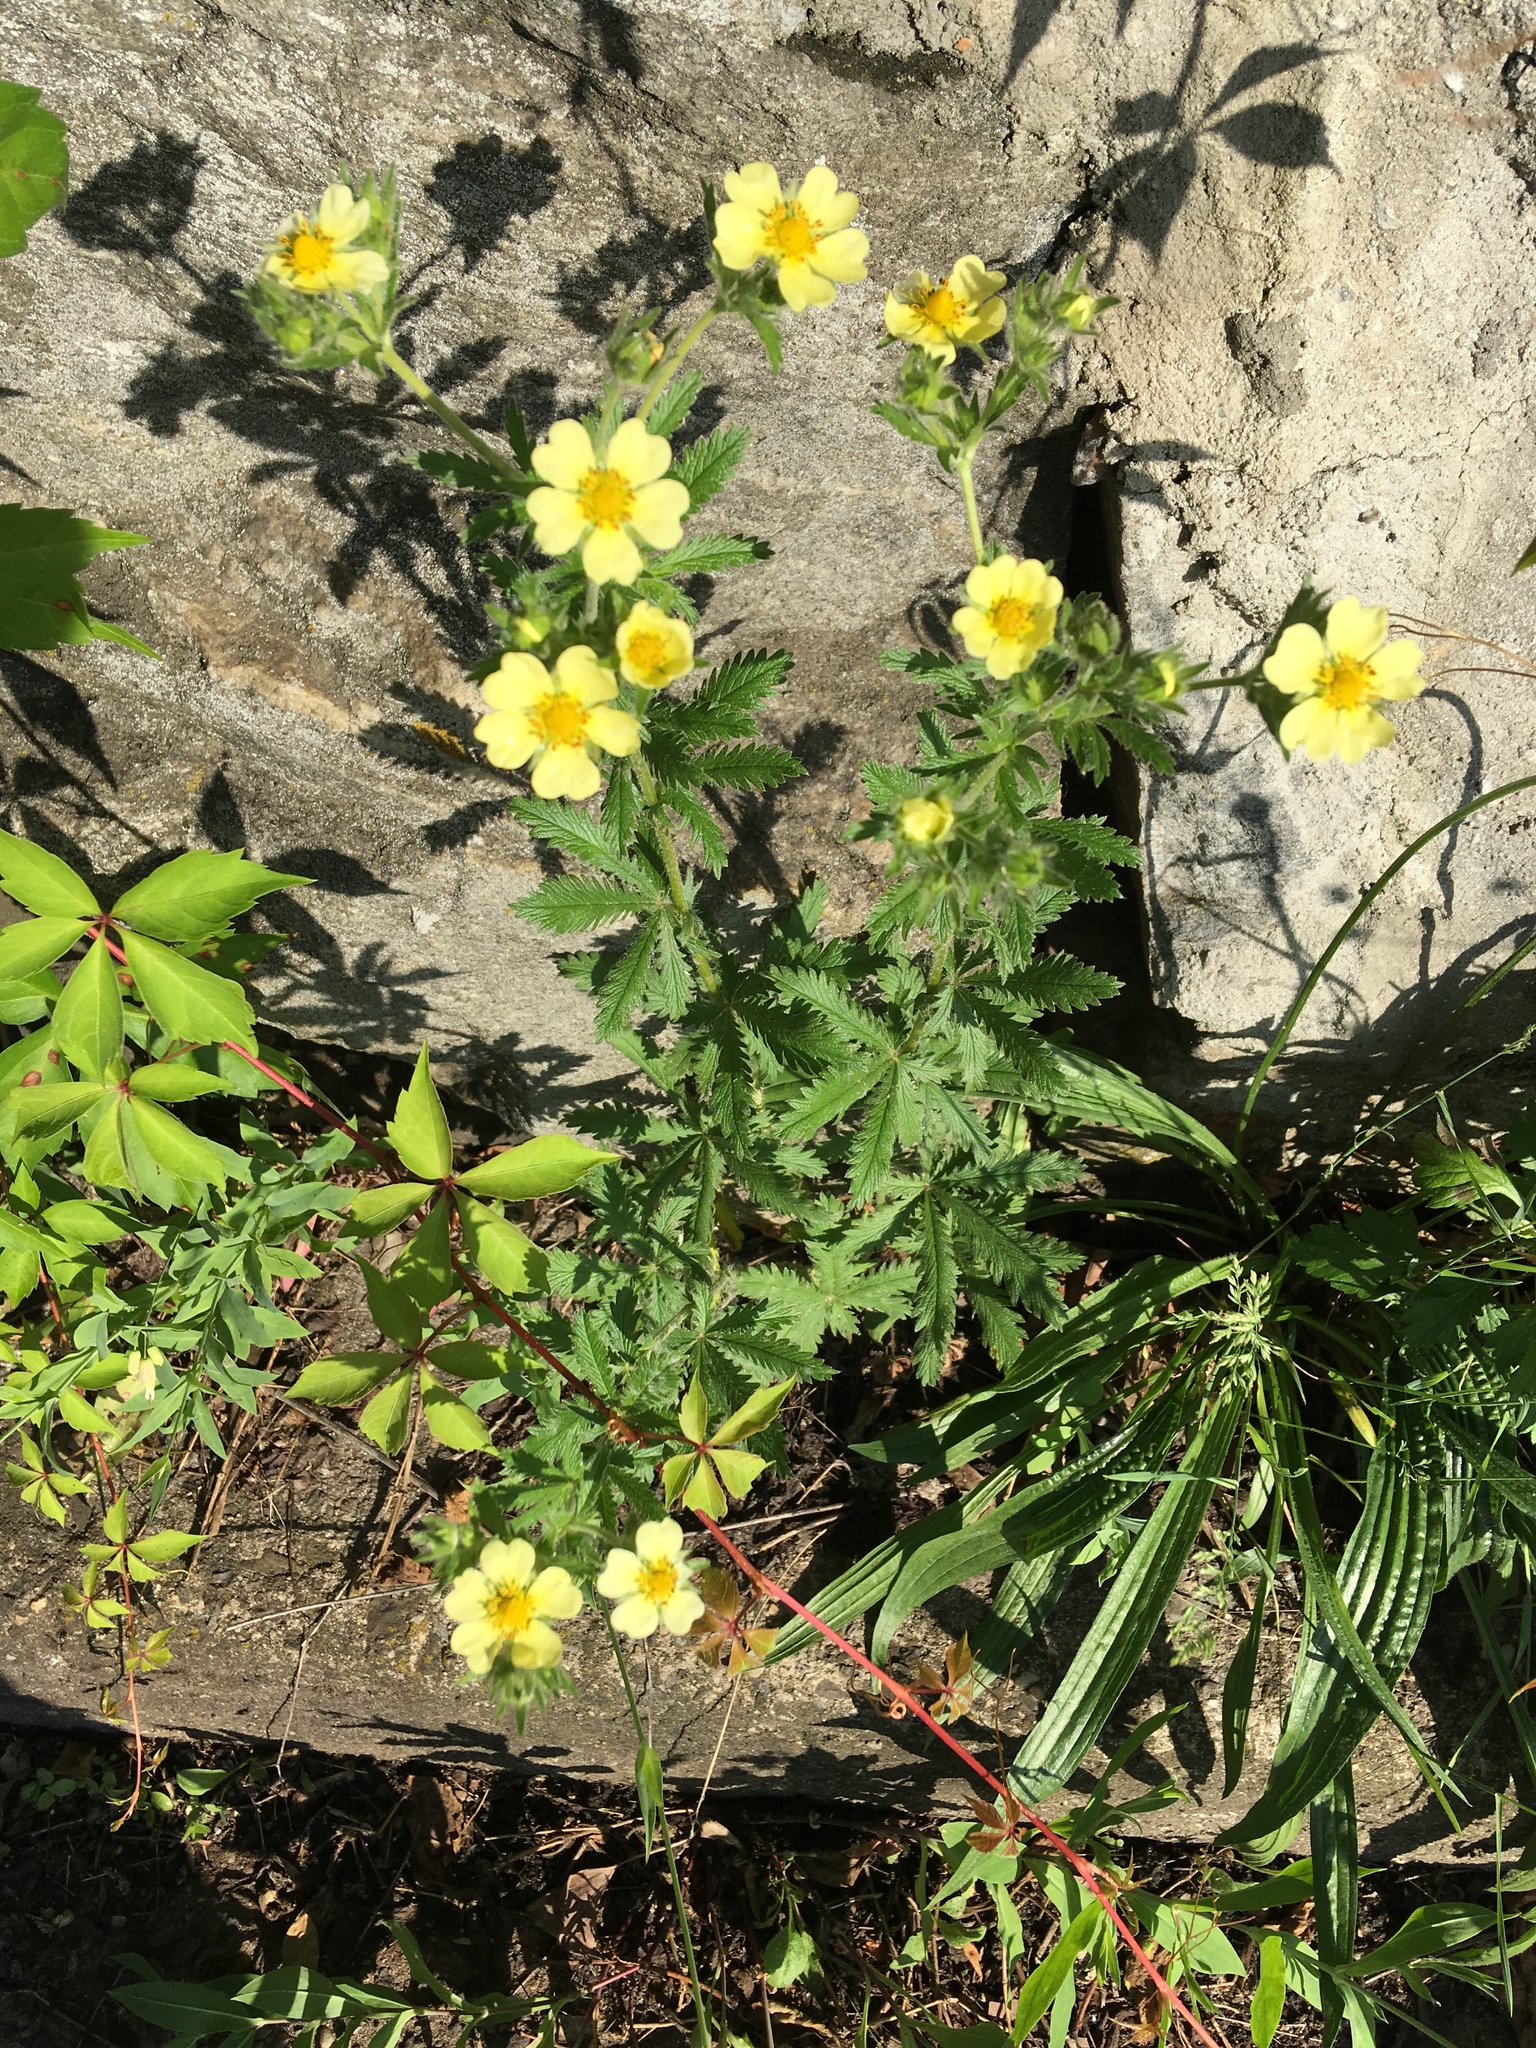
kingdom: Plantae
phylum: Tracheophyta
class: Magnoliopsida
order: Rosales
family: Rosaceae
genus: Potentilla
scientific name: Potentilla recta
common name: Sulphur cinquefoil
